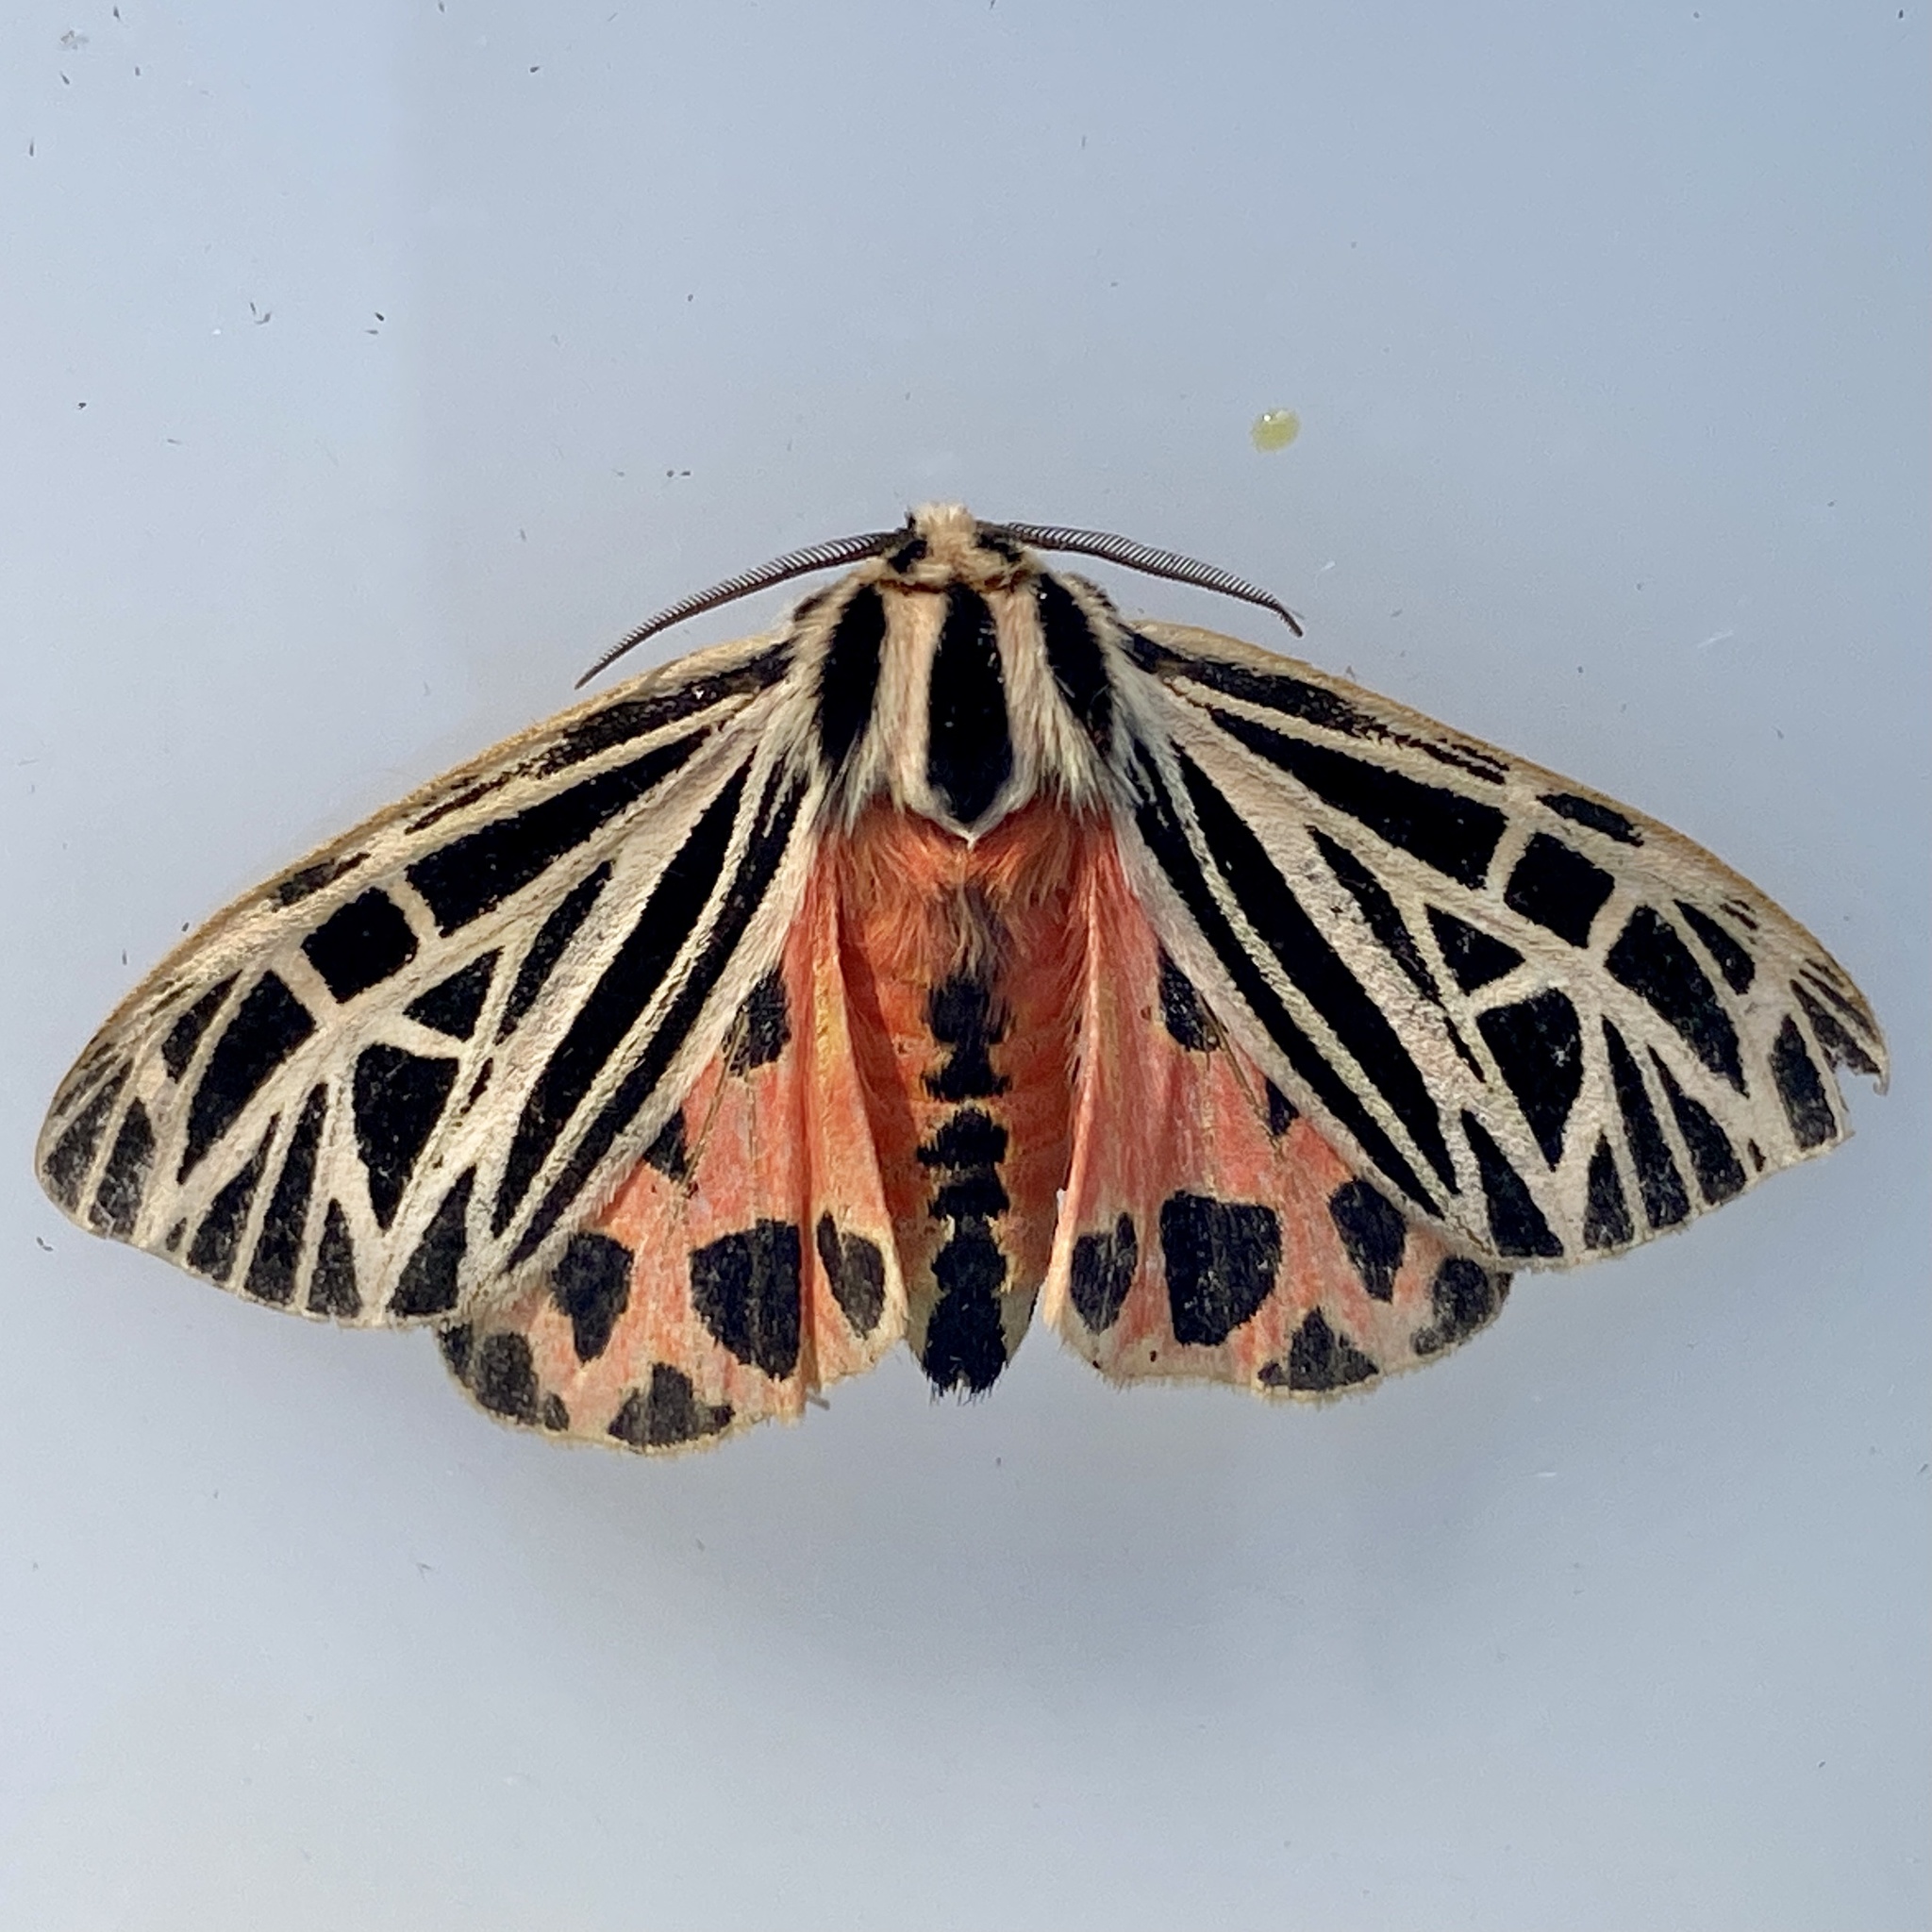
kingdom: Animalia
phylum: Arthropoda
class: Insecta
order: Lepidoptera
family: Erebidae
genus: Grammia
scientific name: Grammia virgo
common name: Virgin tiger moth
